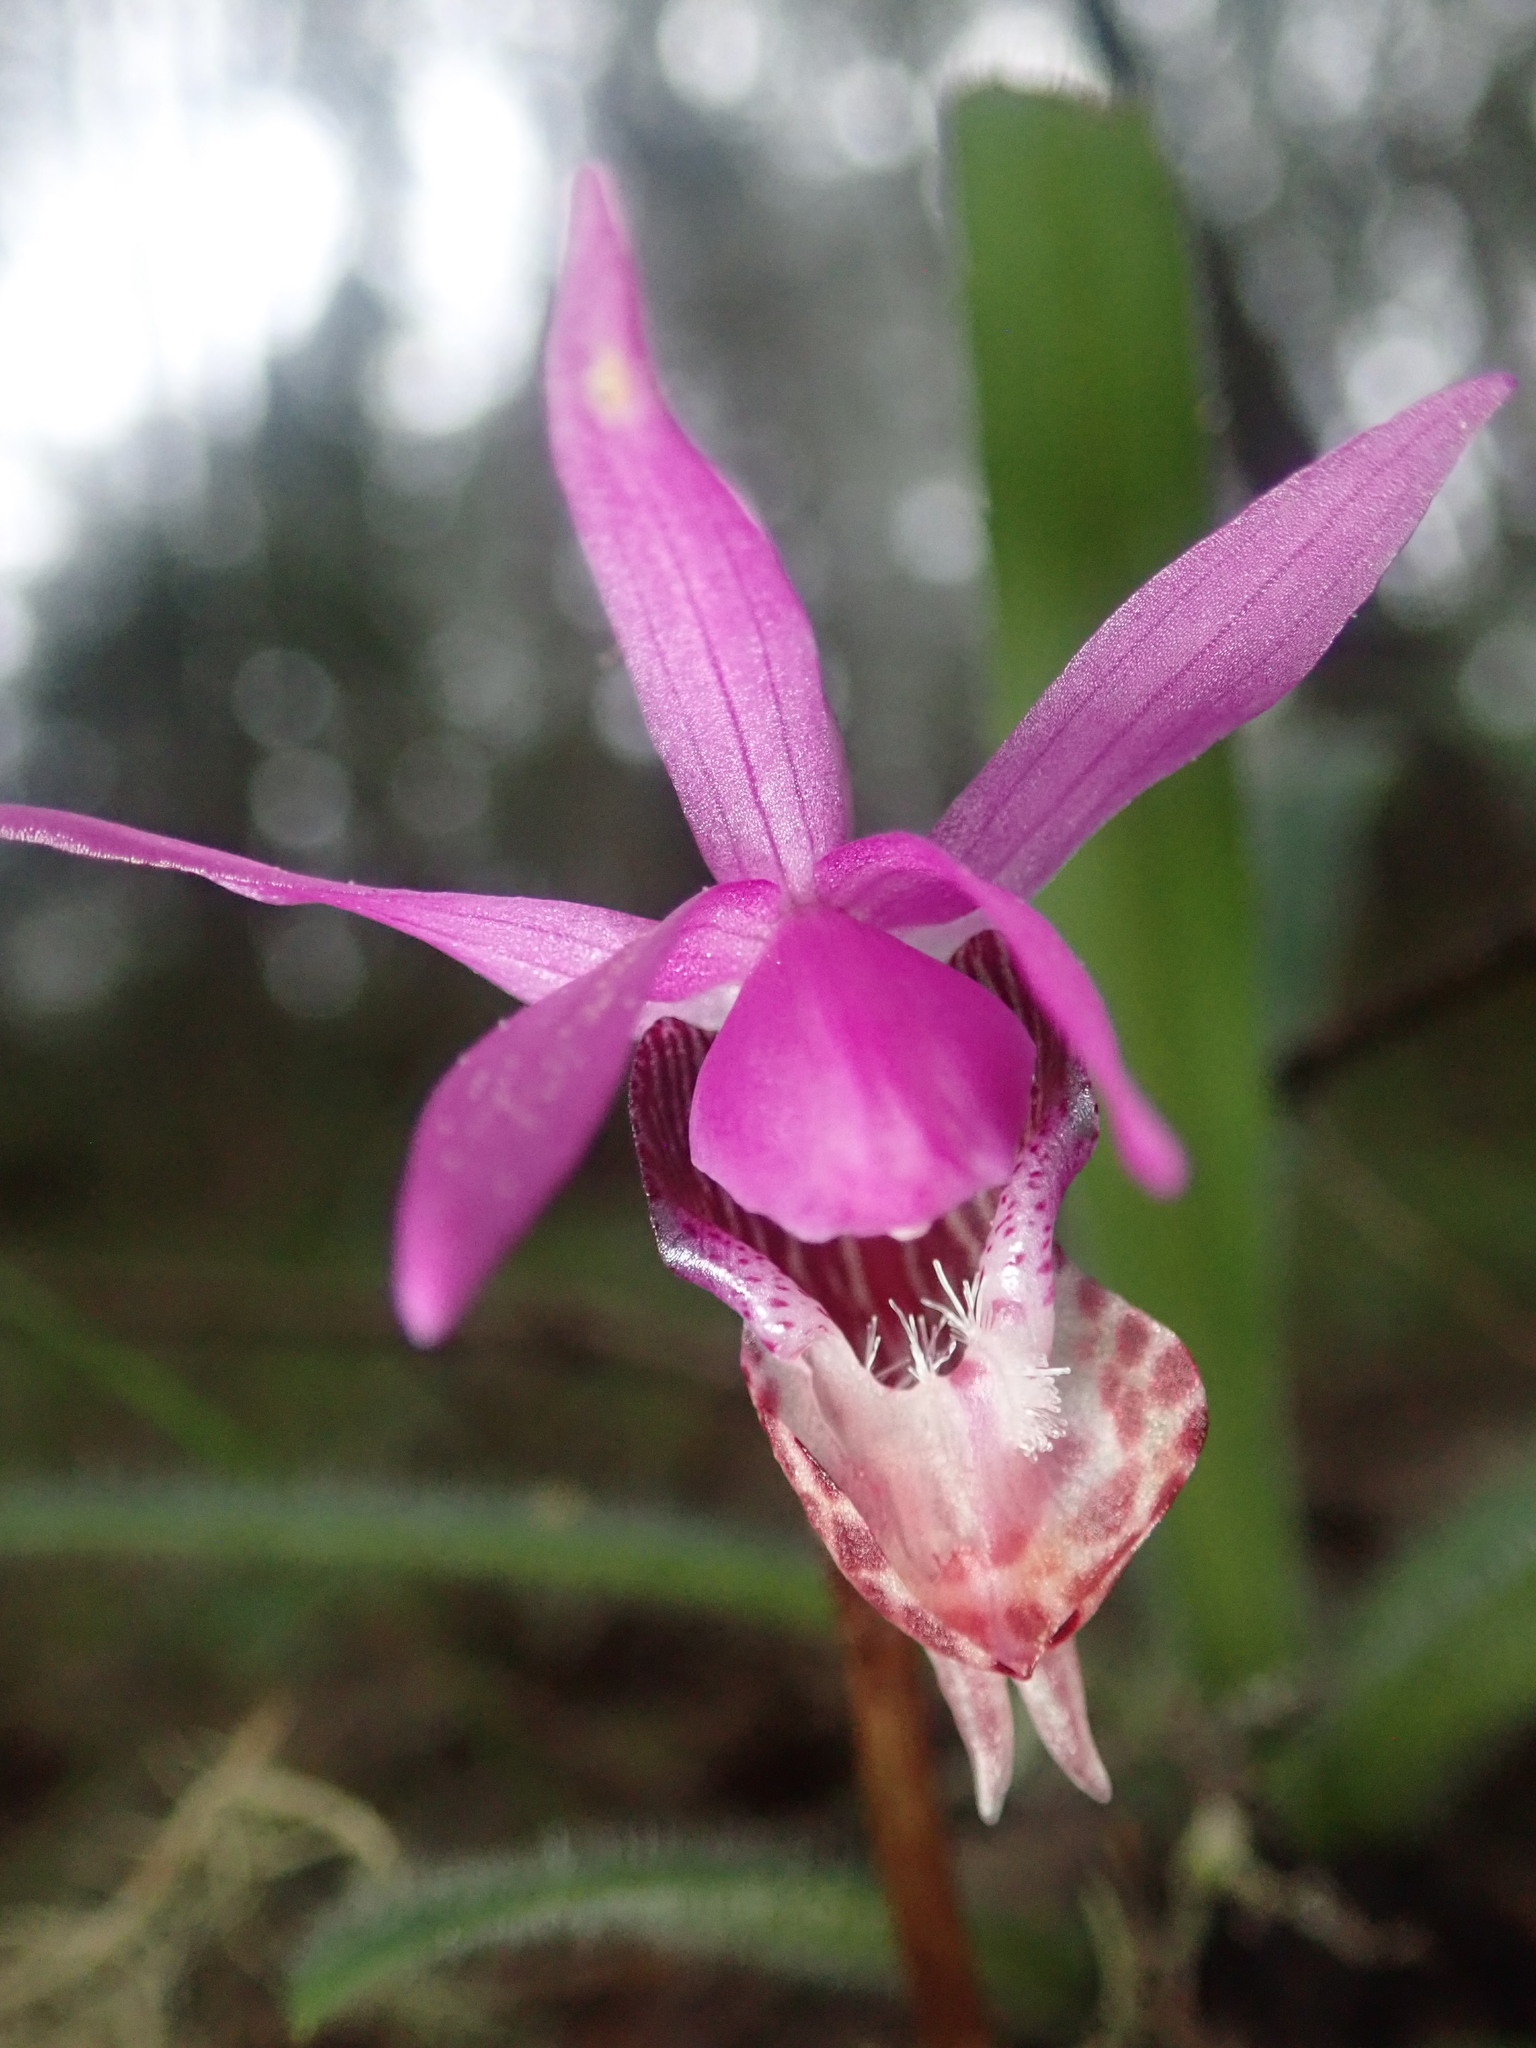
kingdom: Plantae
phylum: Tracheophyta
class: Liliopsida
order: Asparagales
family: Orchidaceae
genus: Calypso
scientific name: Calypso bulbosa
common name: Calypso
